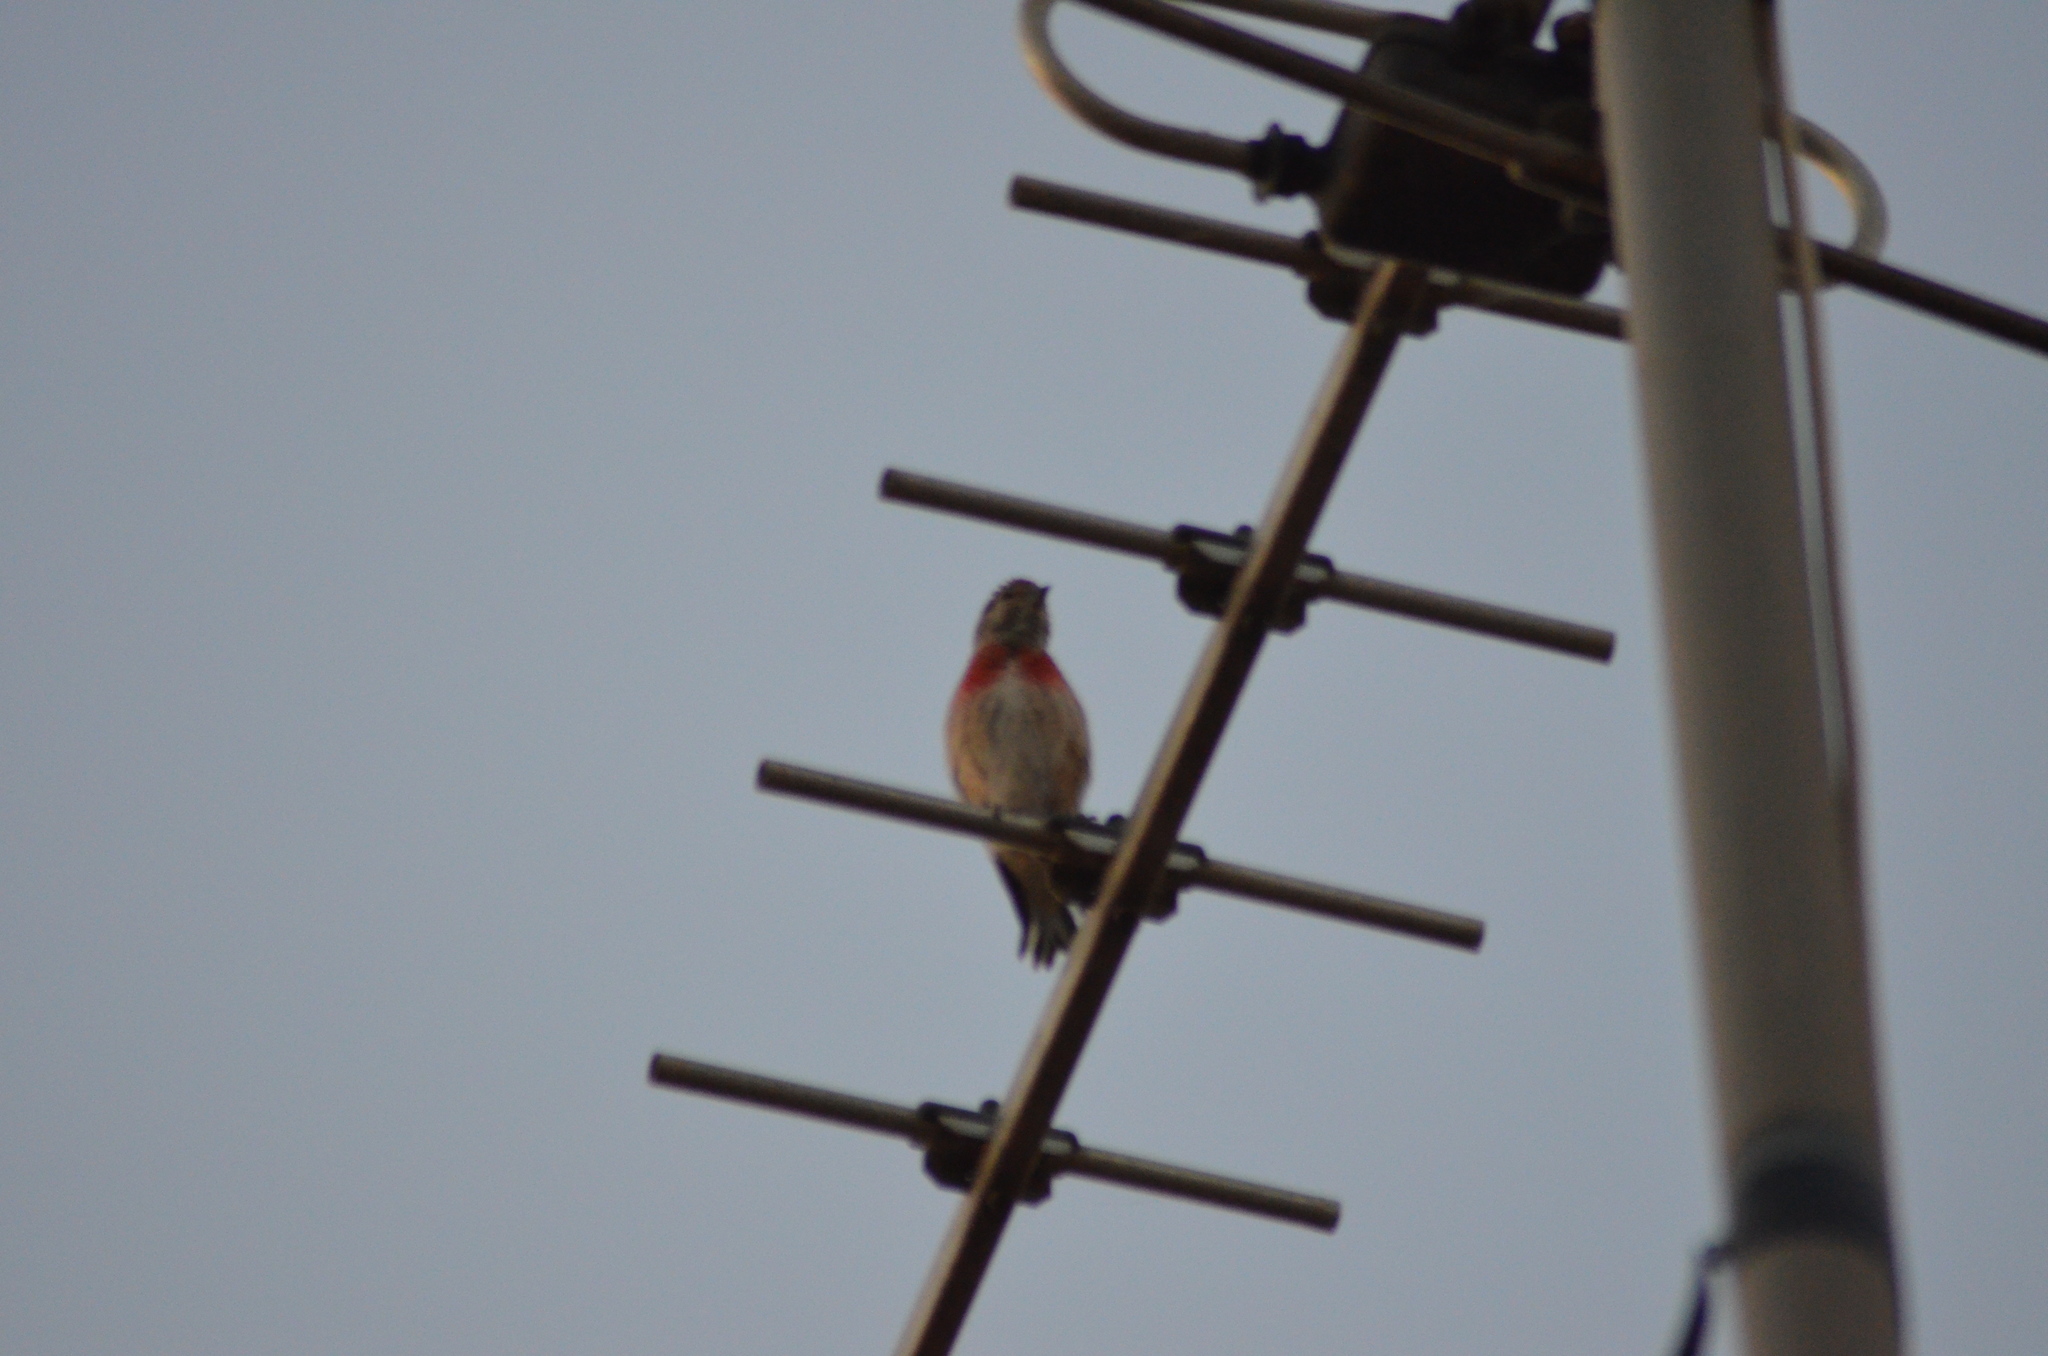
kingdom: Animalia
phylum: Chordata
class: Aves
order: Passeriformes
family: Fringillidae
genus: Linaria
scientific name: Linaria cannabina
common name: Common linnet
